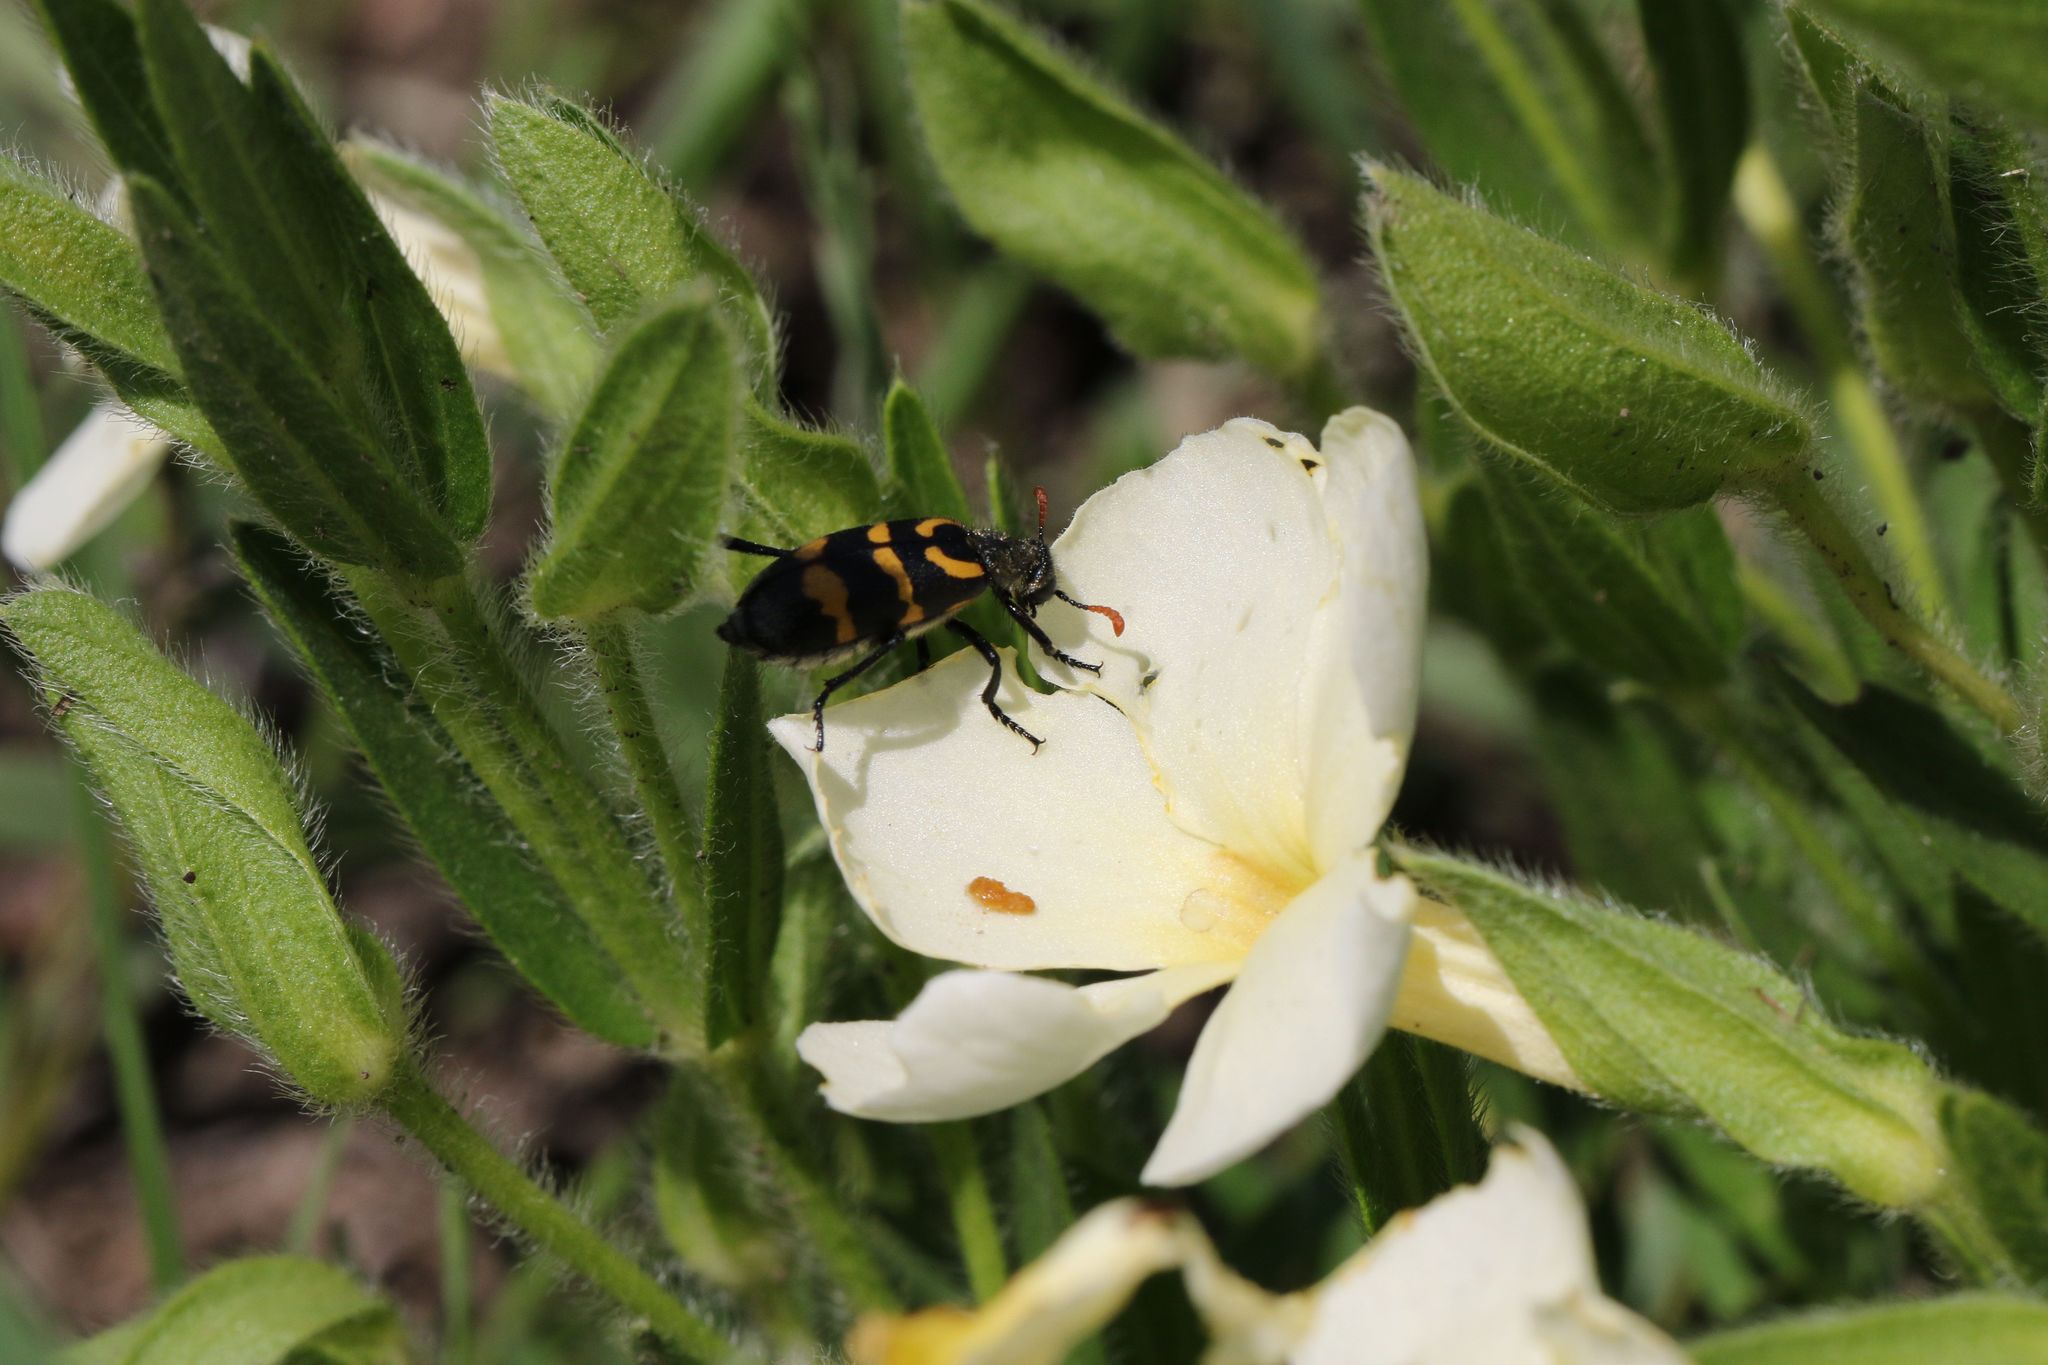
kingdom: Plantae
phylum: Tracheophyta
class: Magnoliopsida
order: Lamiales
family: Acanthaceae
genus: Thunbergia
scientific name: Thunbergia atriplicifolia
